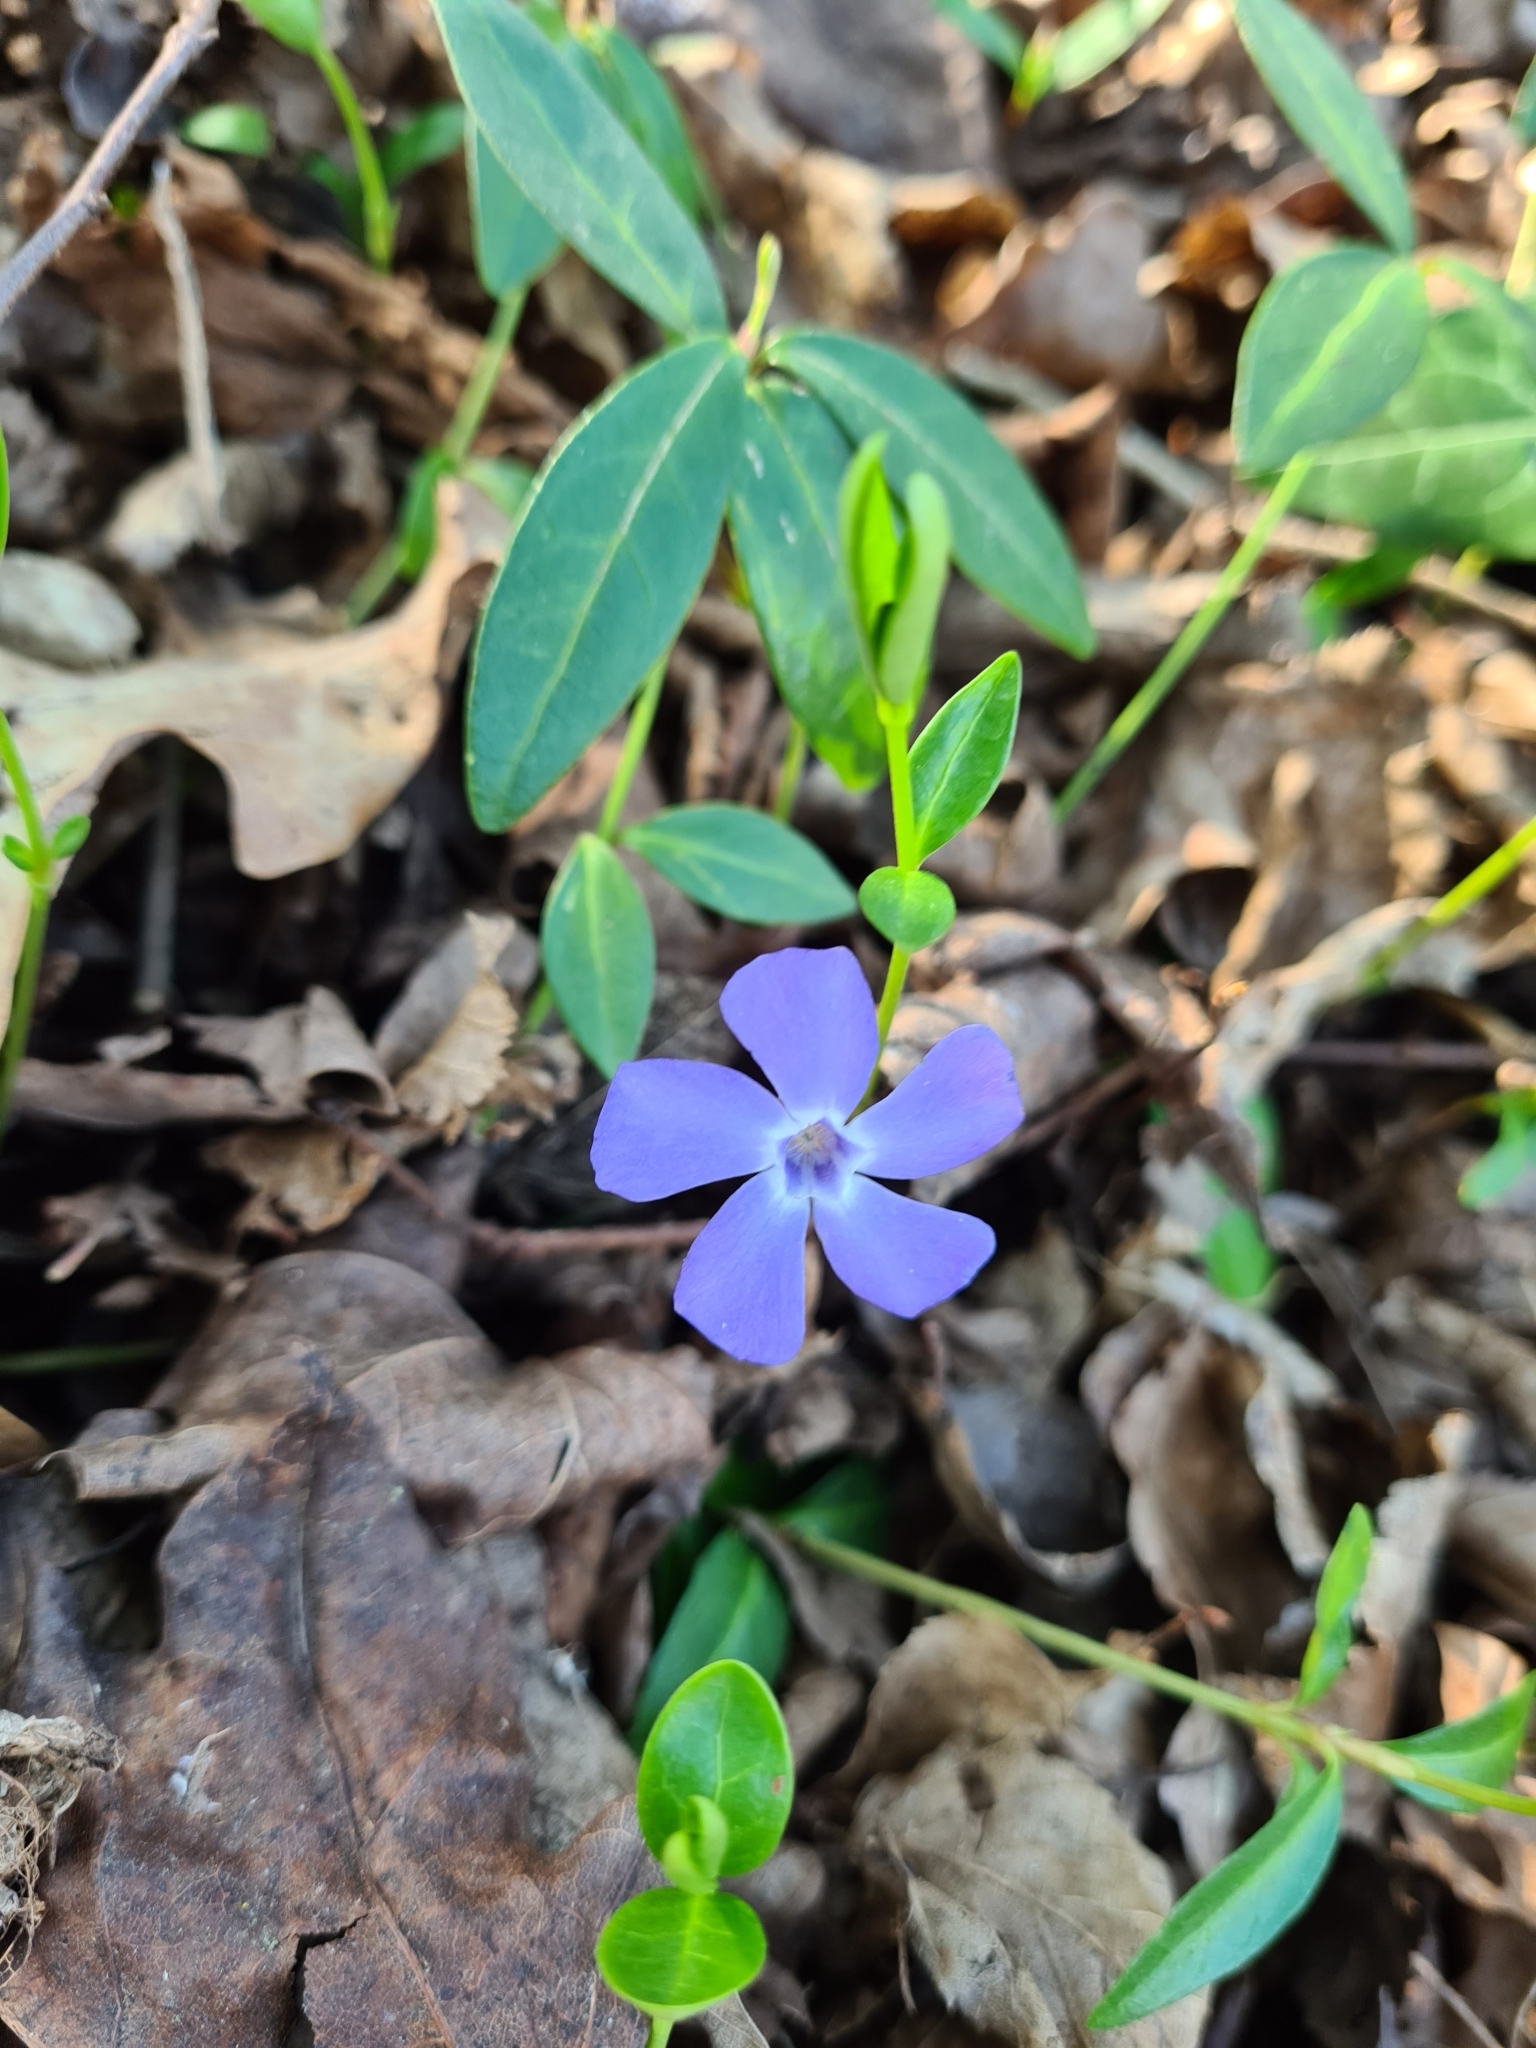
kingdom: Plantae
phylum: Tracheophyta
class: Magnoliopsida
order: Gentianales
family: Apocynaceae
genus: Vinca
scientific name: Vinca minor
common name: Lesser periwinkle
